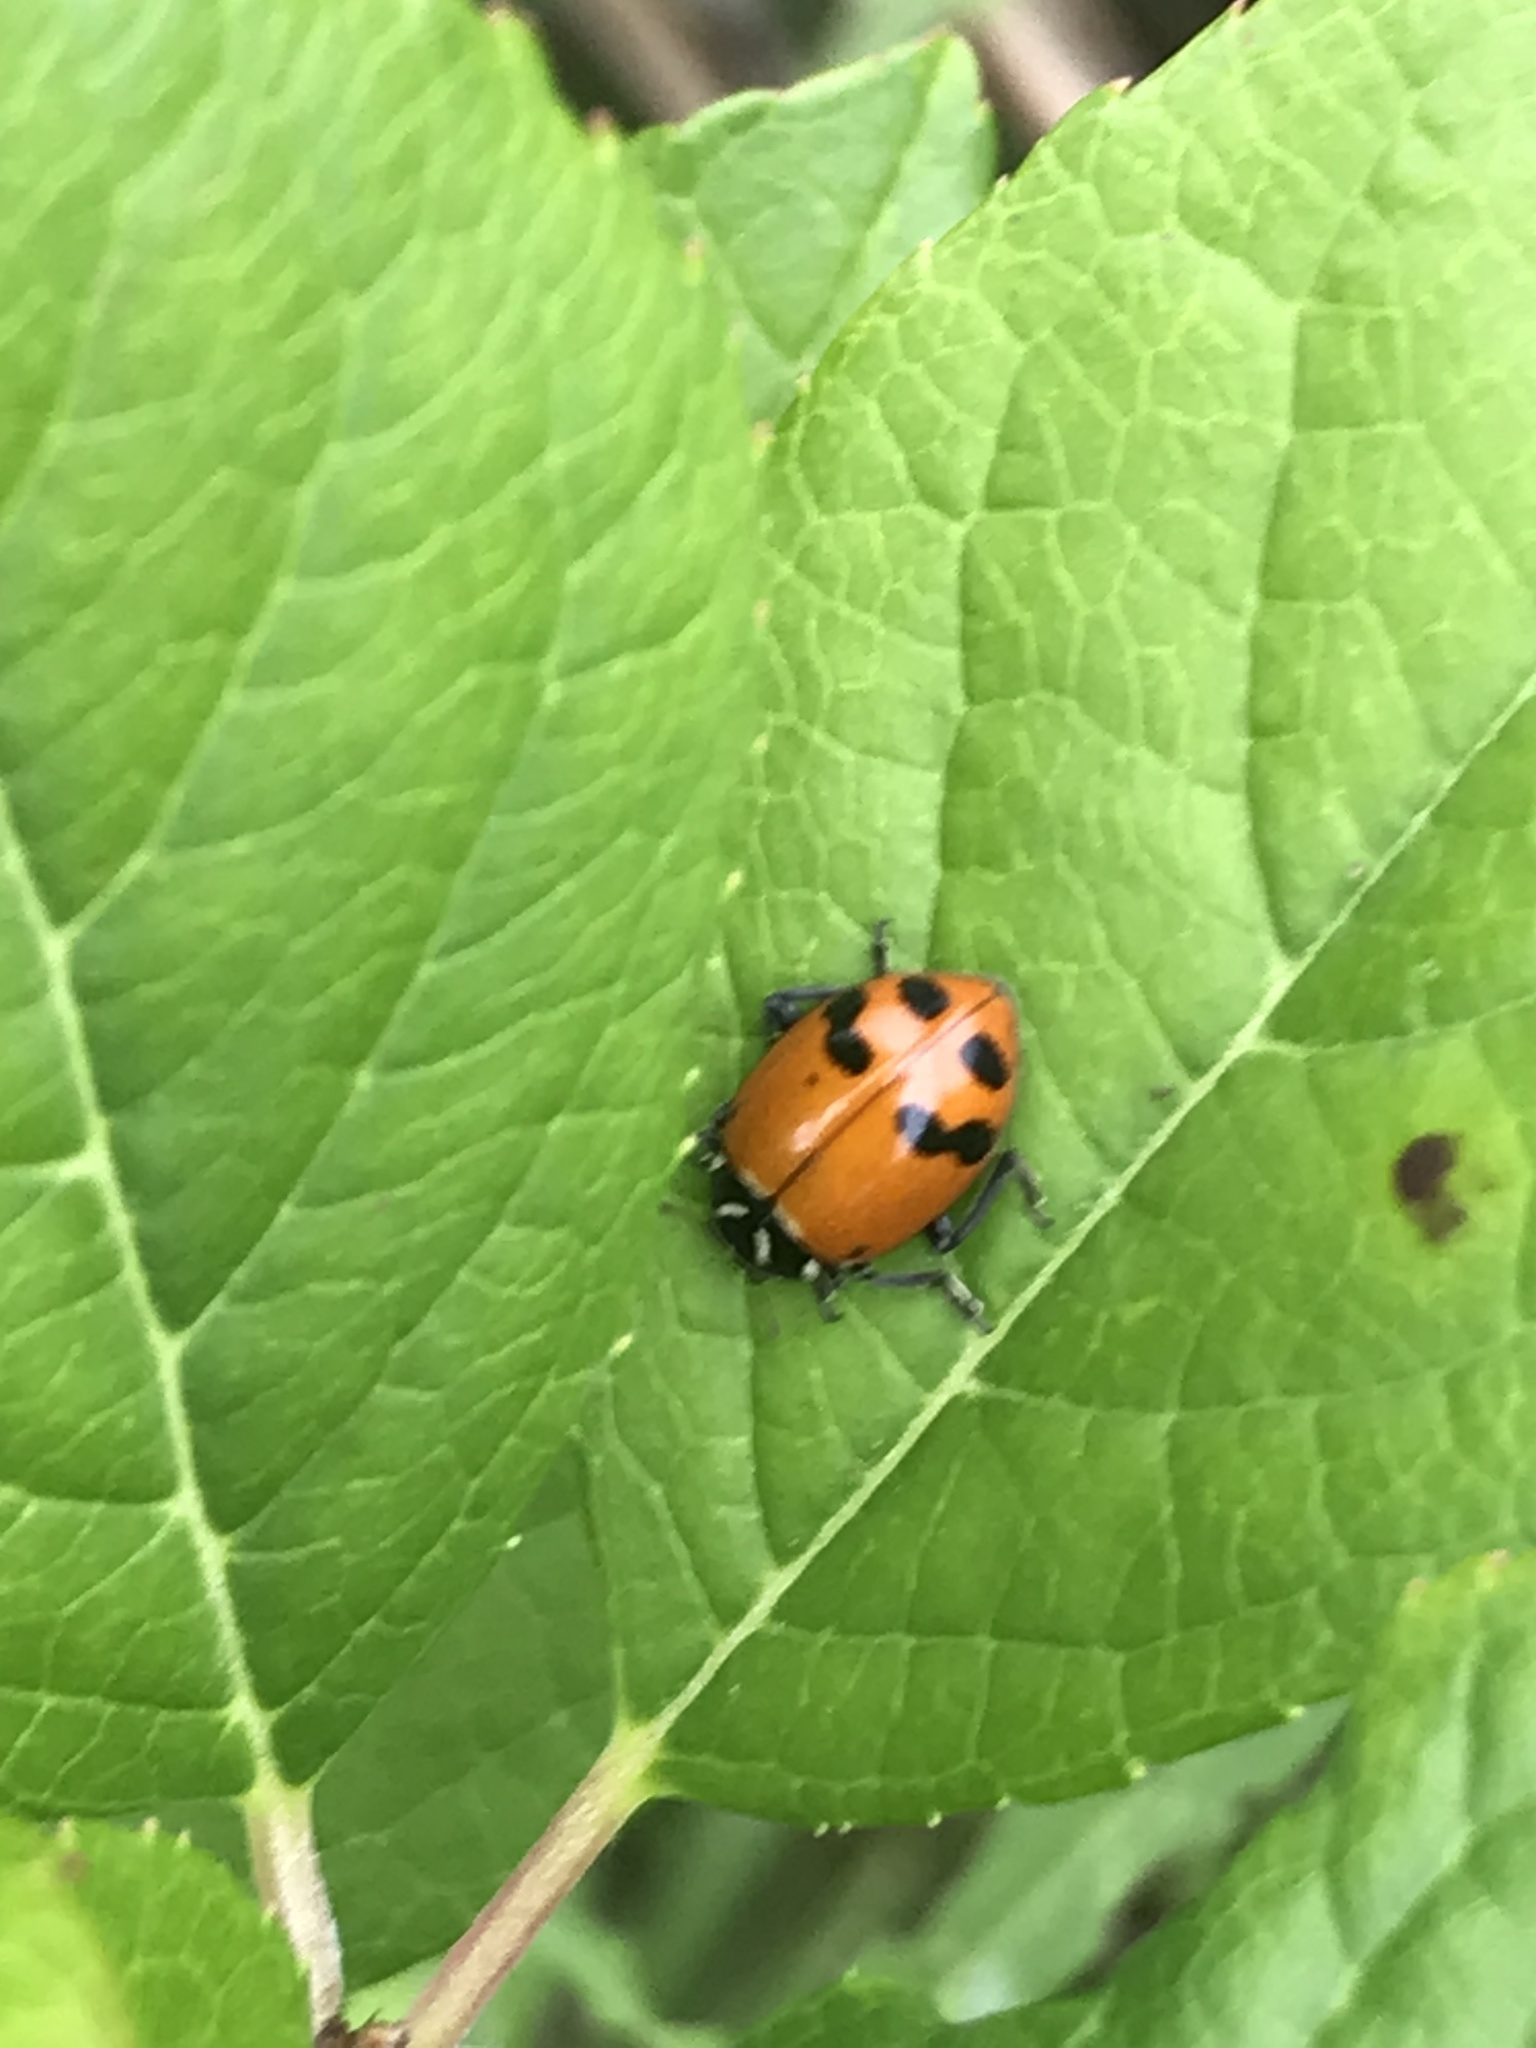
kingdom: Animalia
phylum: Arthropoda
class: Insecta
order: Coleoptera
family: Coccinellidae
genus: Hippodamia
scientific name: Hippodamia glacialis
